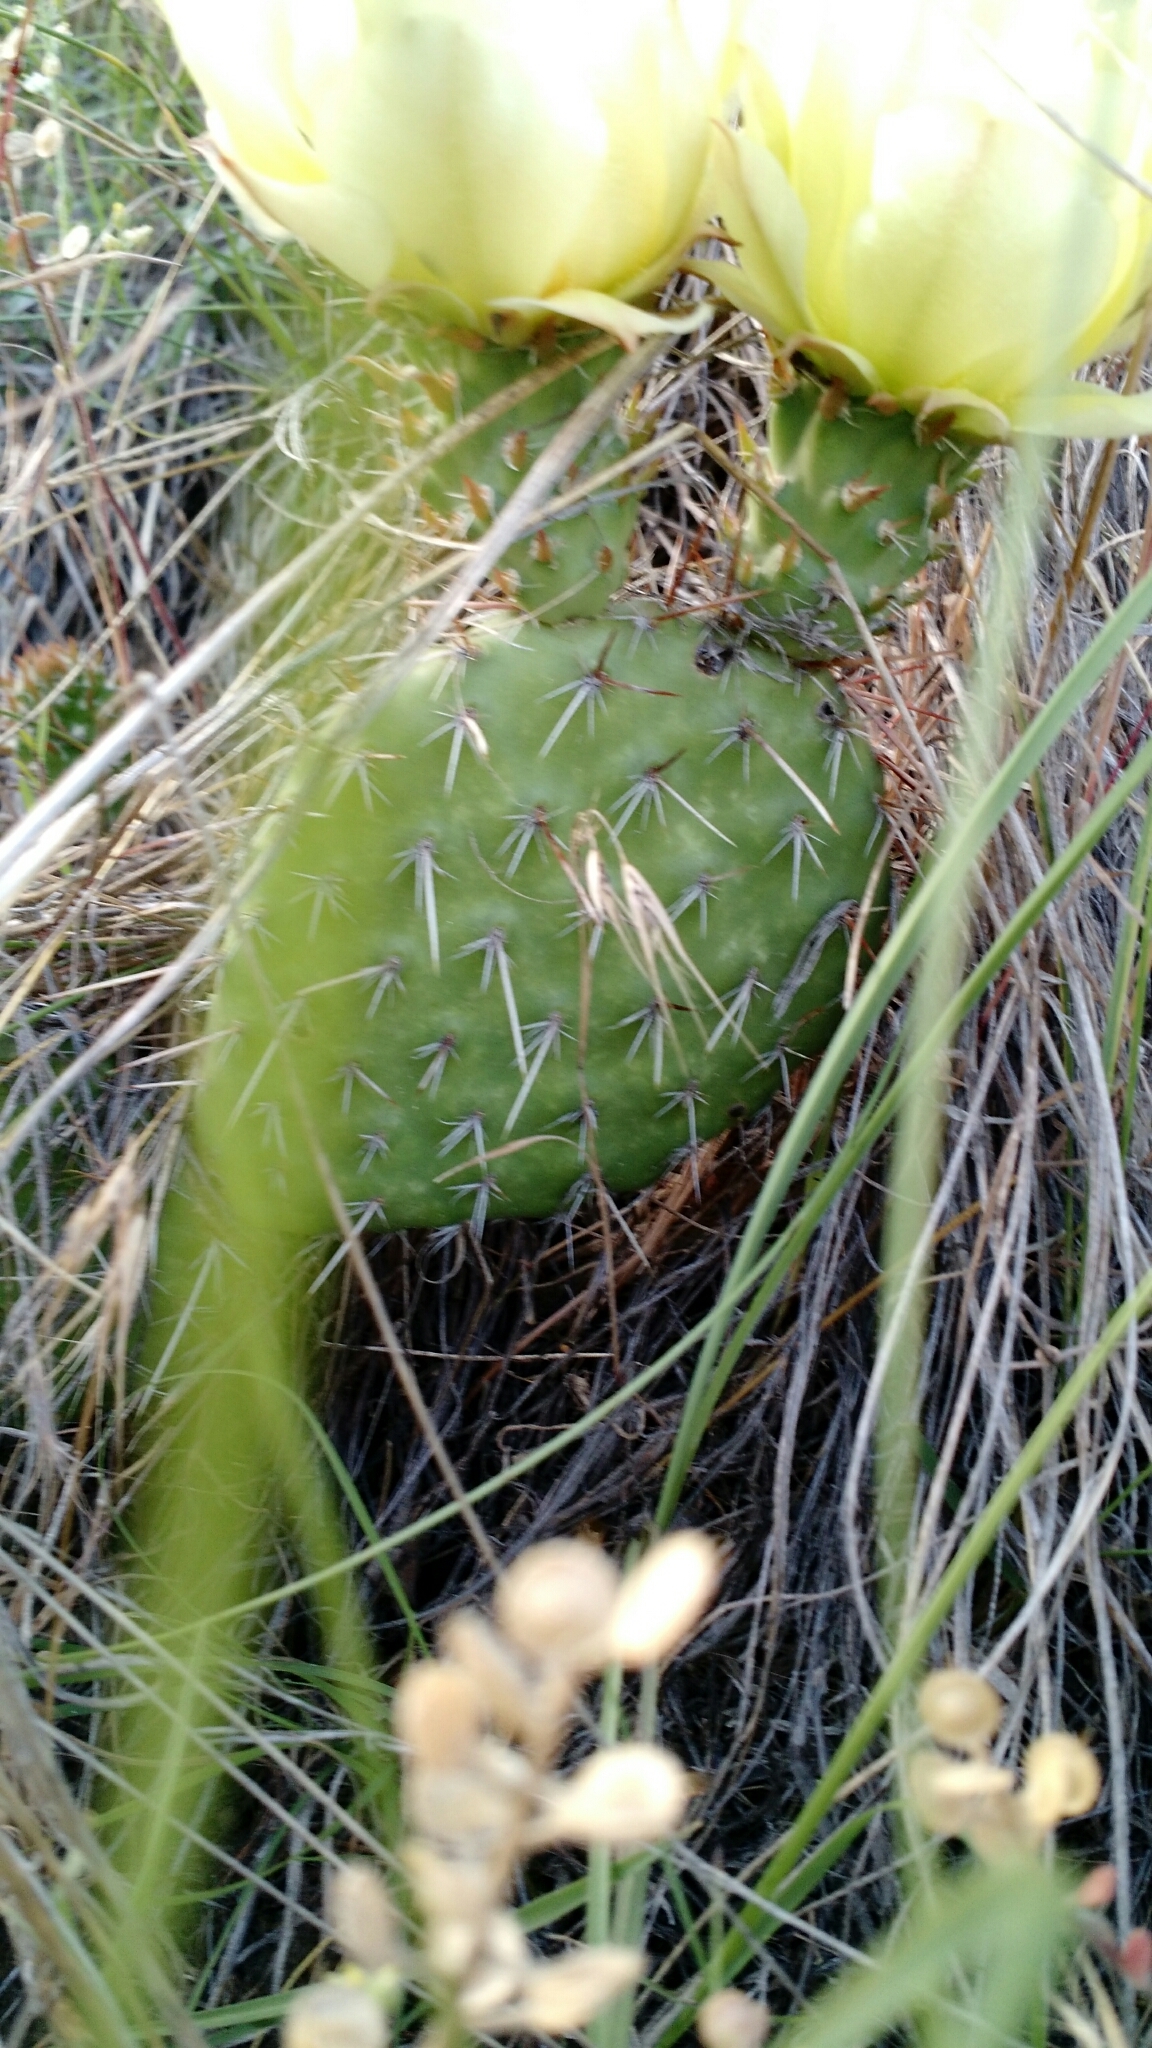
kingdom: Plantae
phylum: Tracheophyta
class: Magnoliopsida
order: Caryophyllales
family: Cactaceae
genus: Opuntia
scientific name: Opuntia polyacantha
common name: Plains prickly-pear
